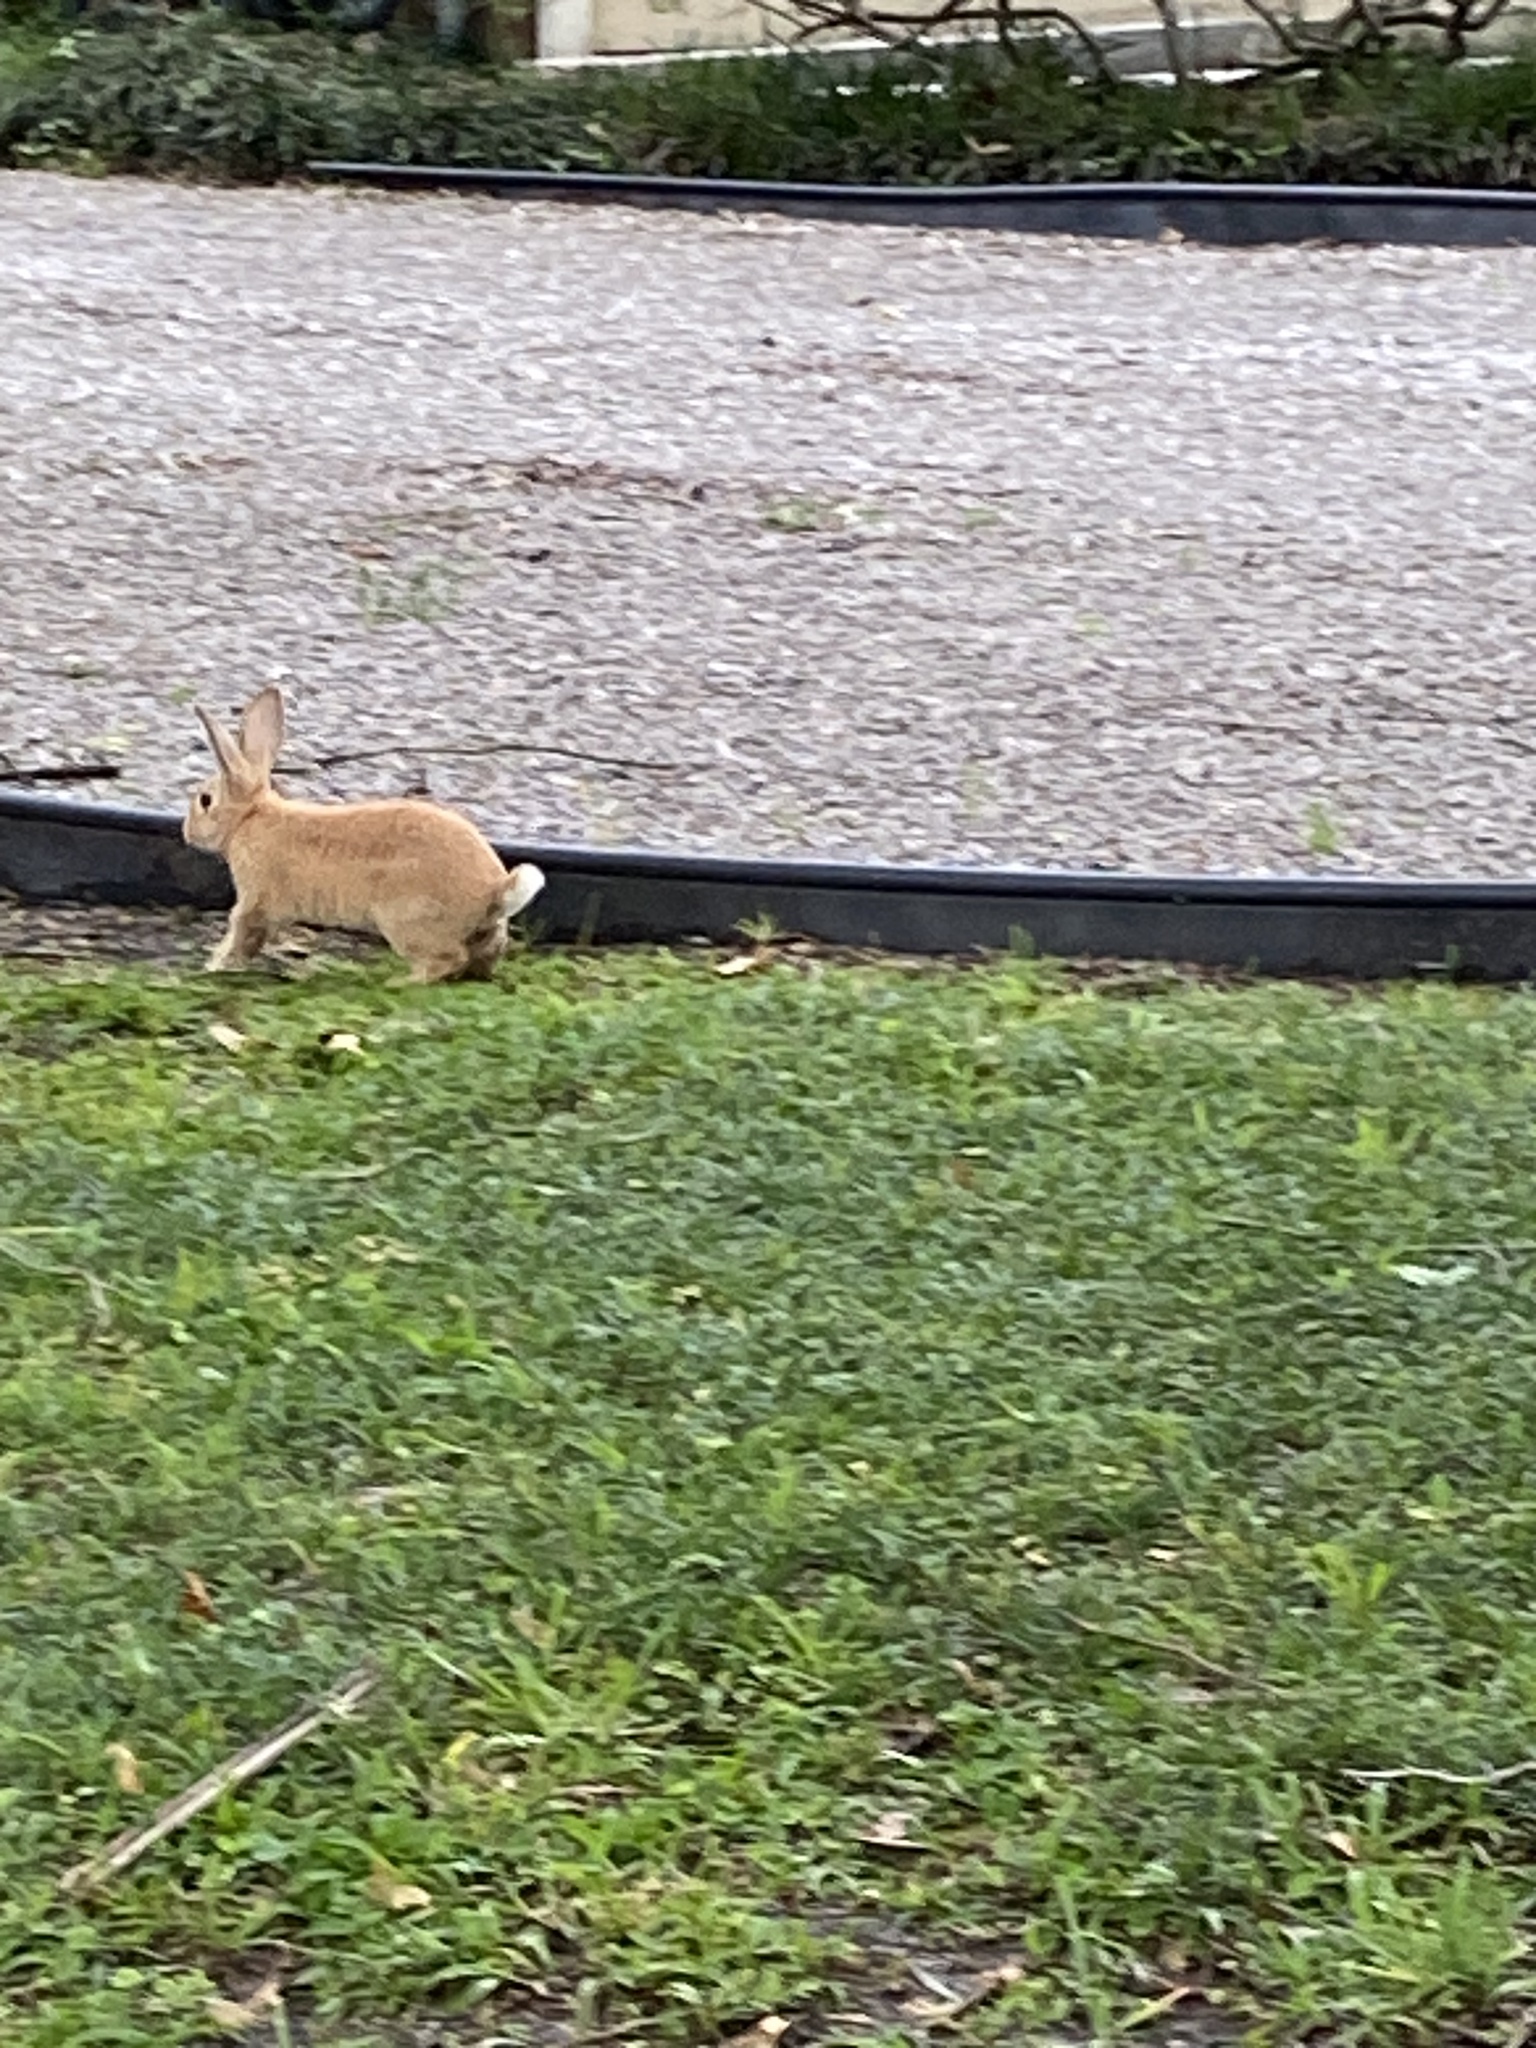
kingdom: Animalia
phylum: Chordata
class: Mammalia
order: Lagomorpha
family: Leporidae
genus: Oryctolagus
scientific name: Oryctolagus cuniculus
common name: European rabbit
